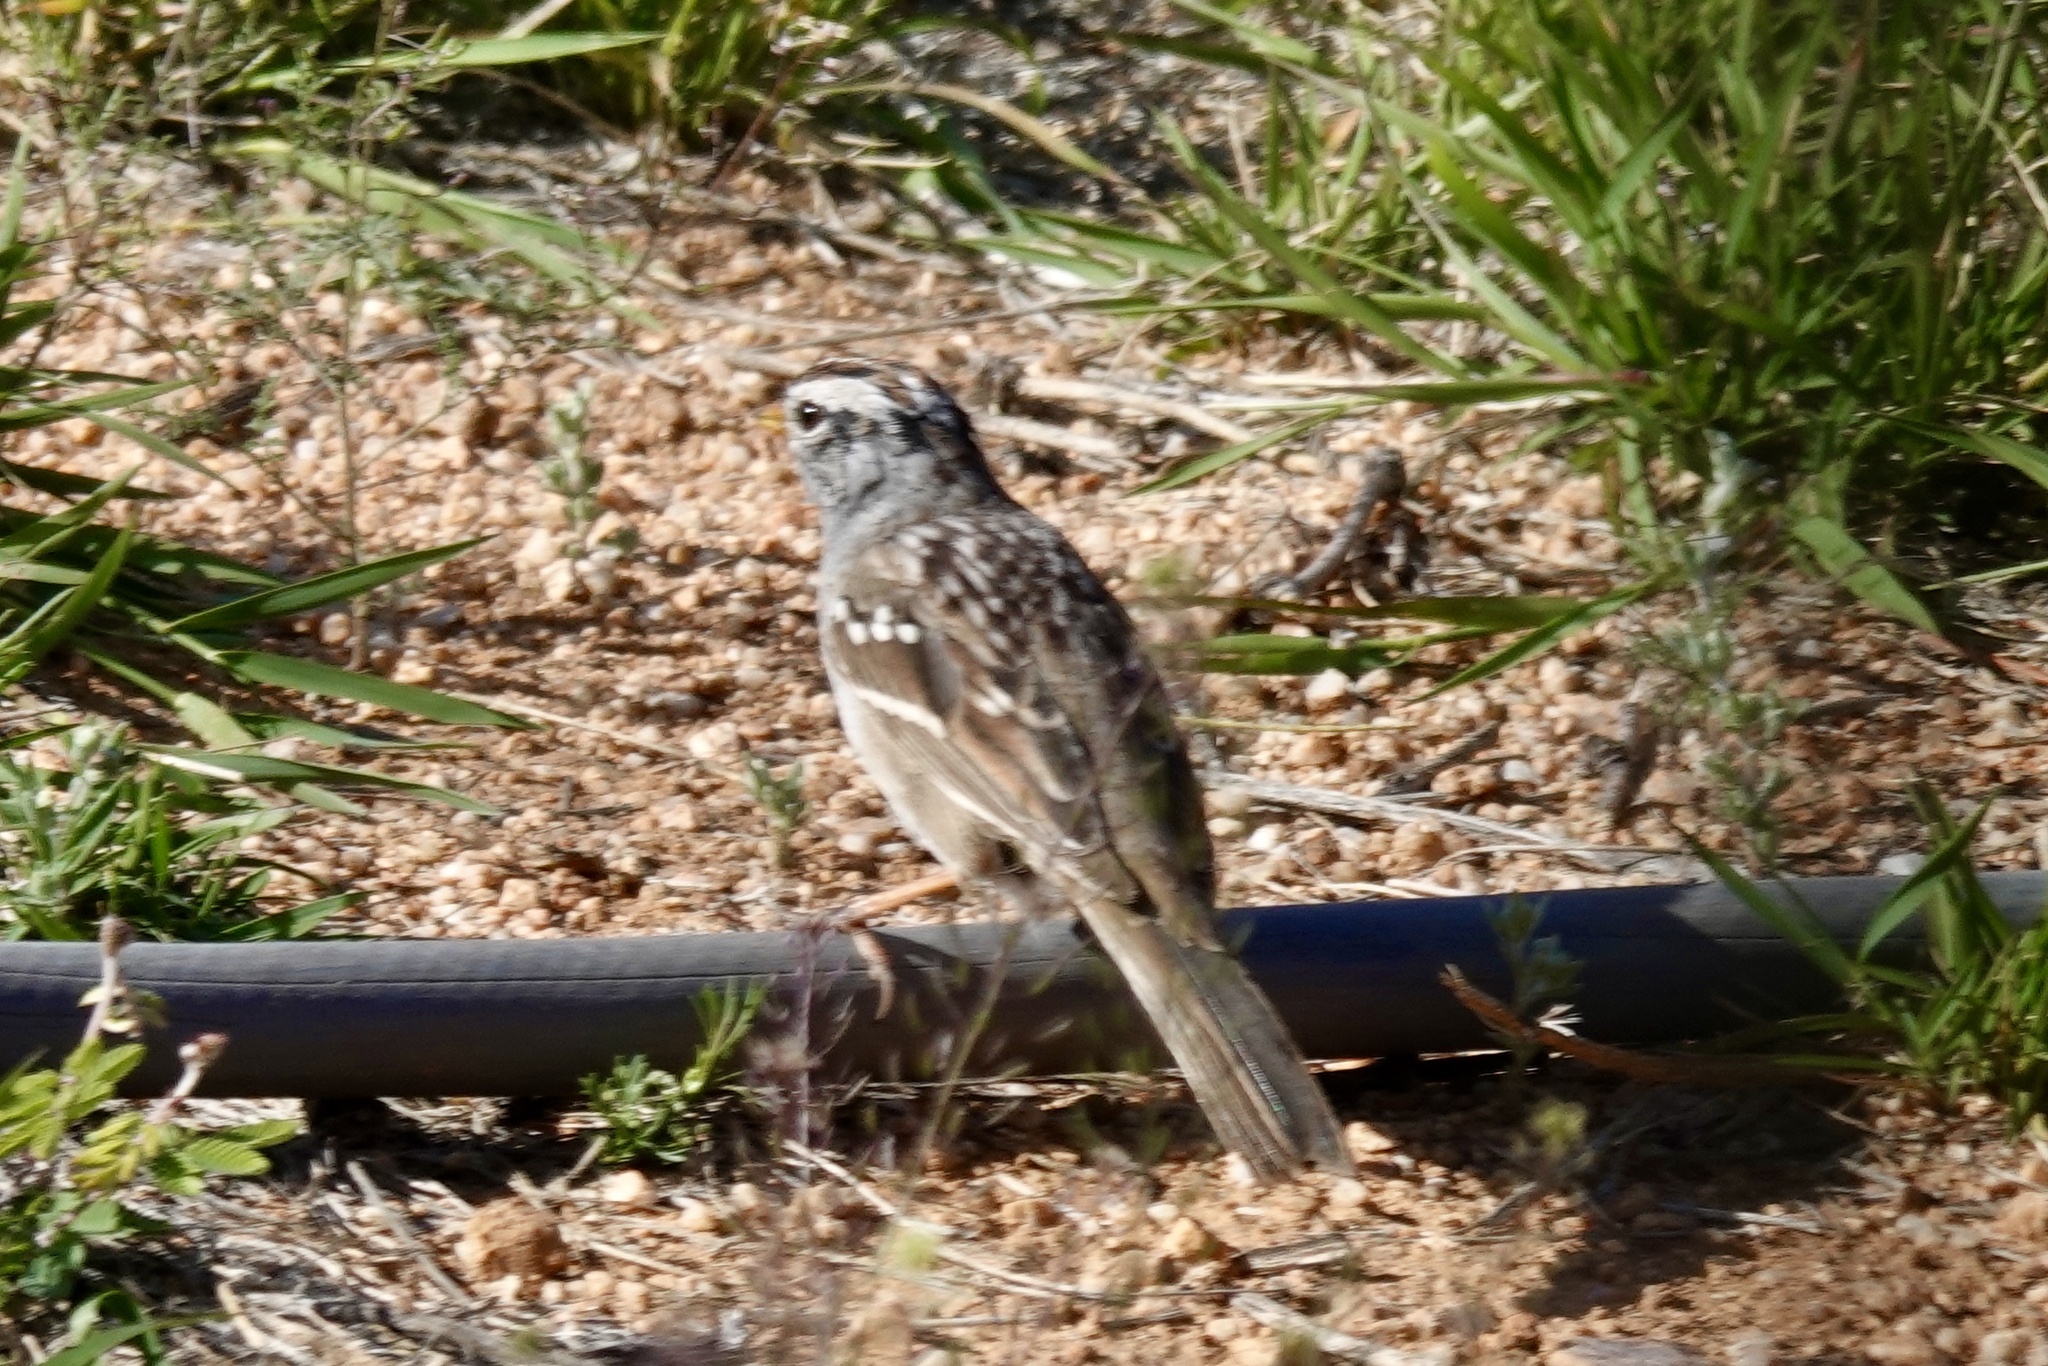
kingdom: Animalia
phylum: Chordata
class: Aves
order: Passeriformes
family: Passerellidae
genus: Zonotrichia
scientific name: Zonotrichia leucophrys
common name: White-crowned sparrow
